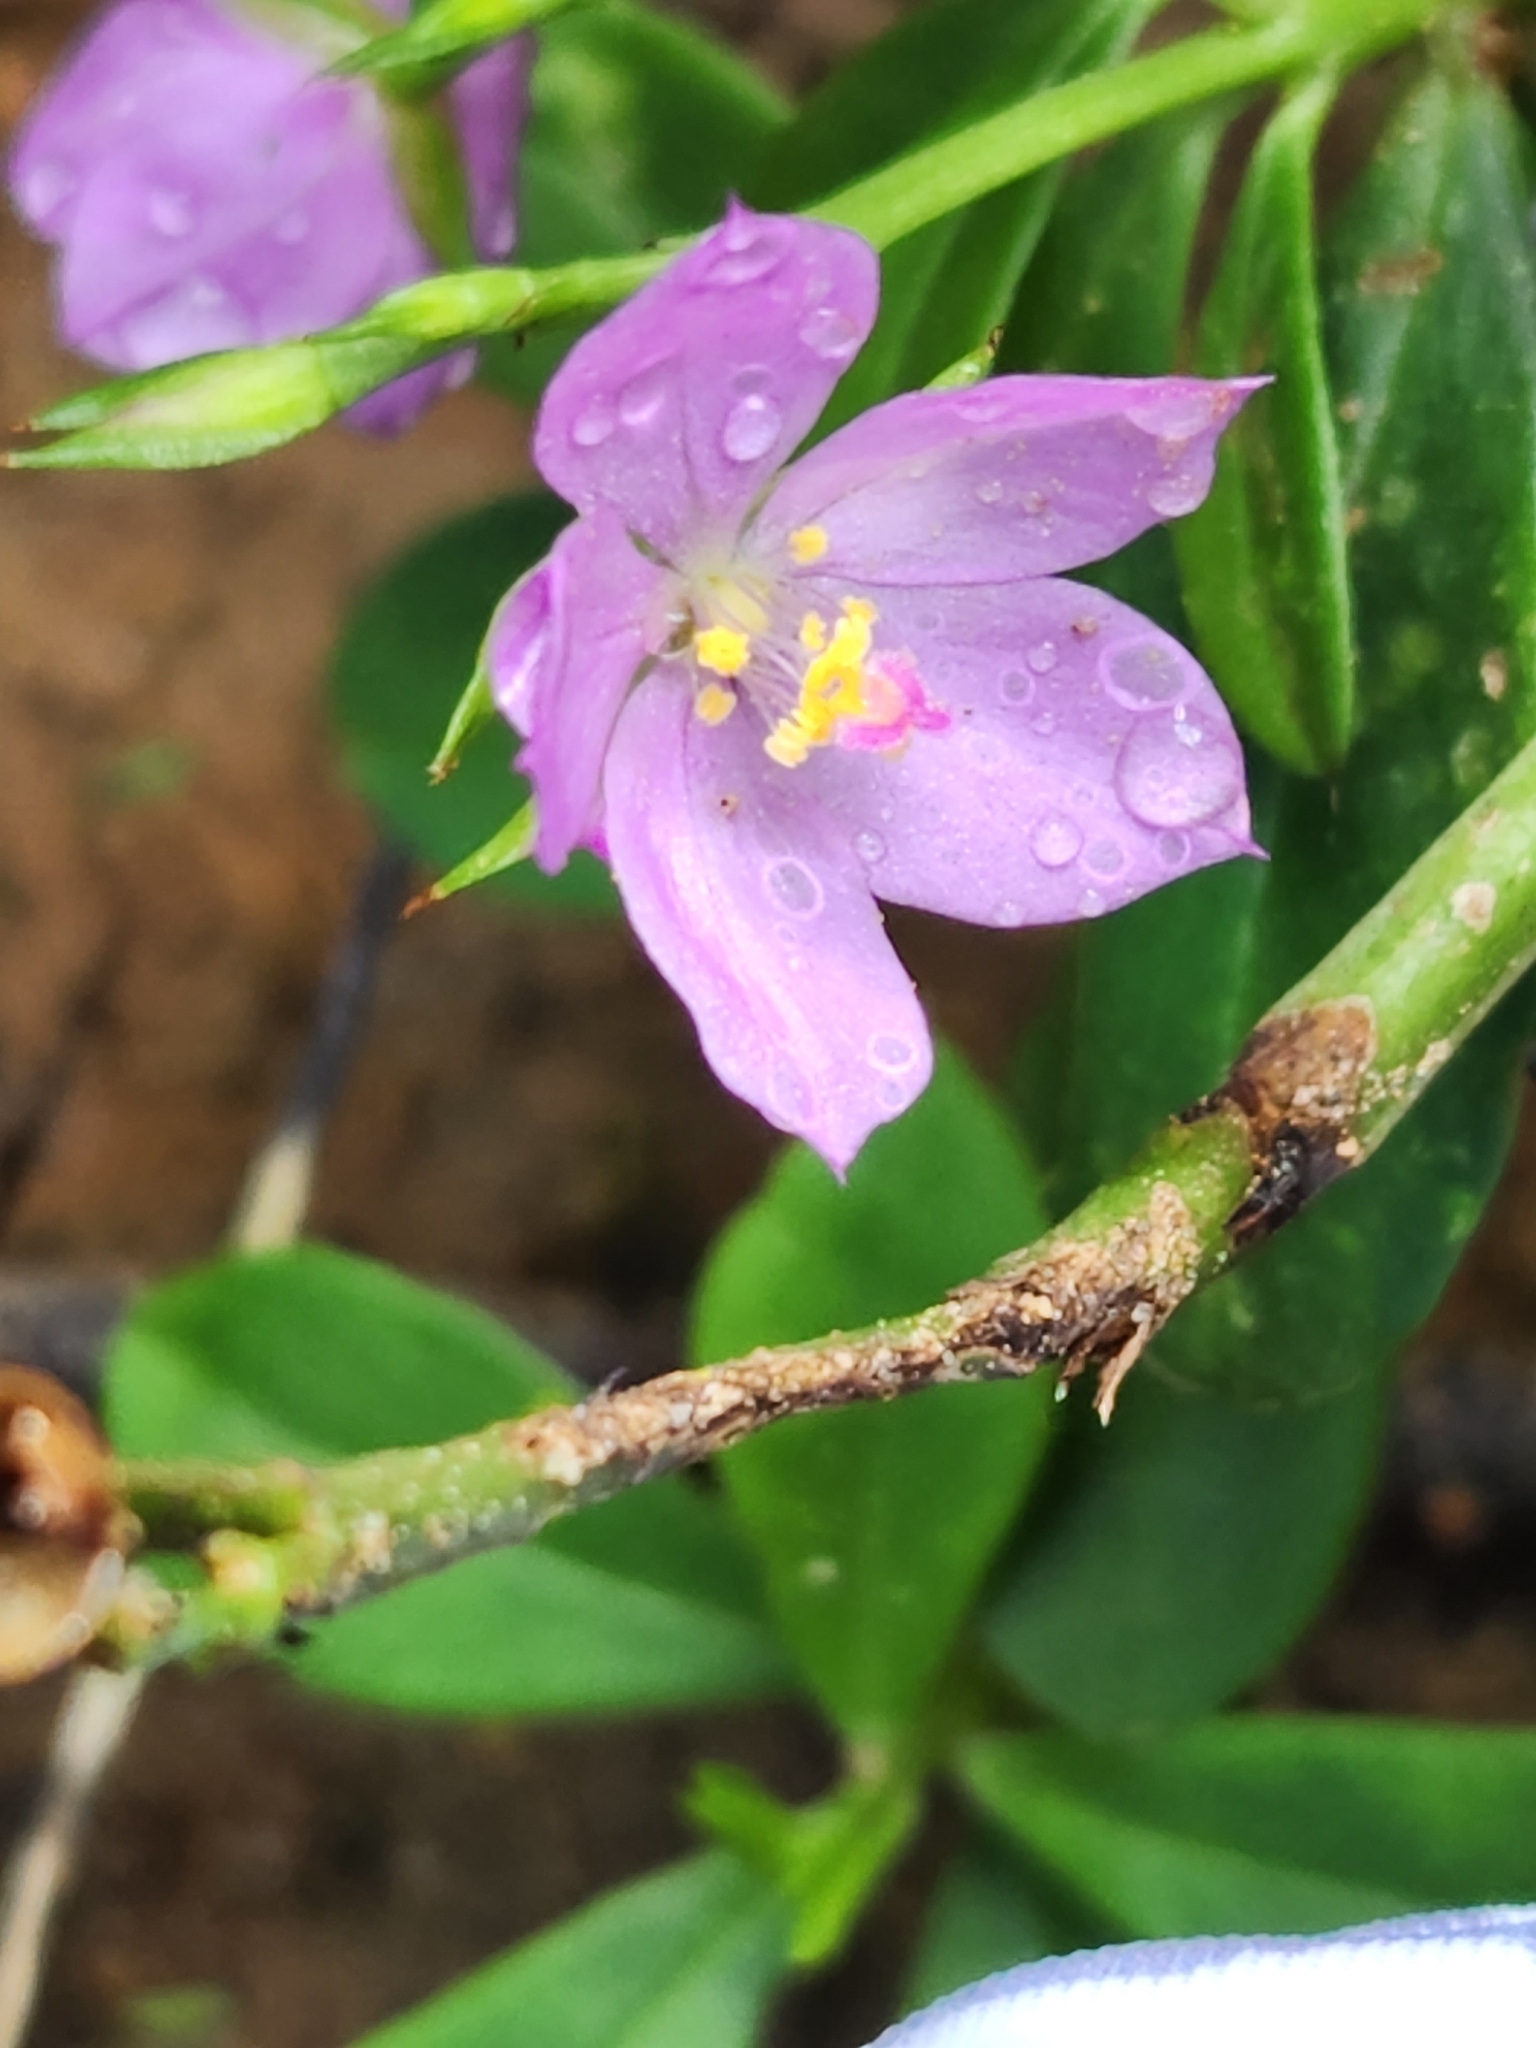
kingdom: Plantae
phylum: Tracheophyta
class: Magnoliopsida
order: Caryophyllales
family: Talinaceae
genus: Talinum
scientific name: Talinum fruticosum
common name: Verdolaga-francesa
